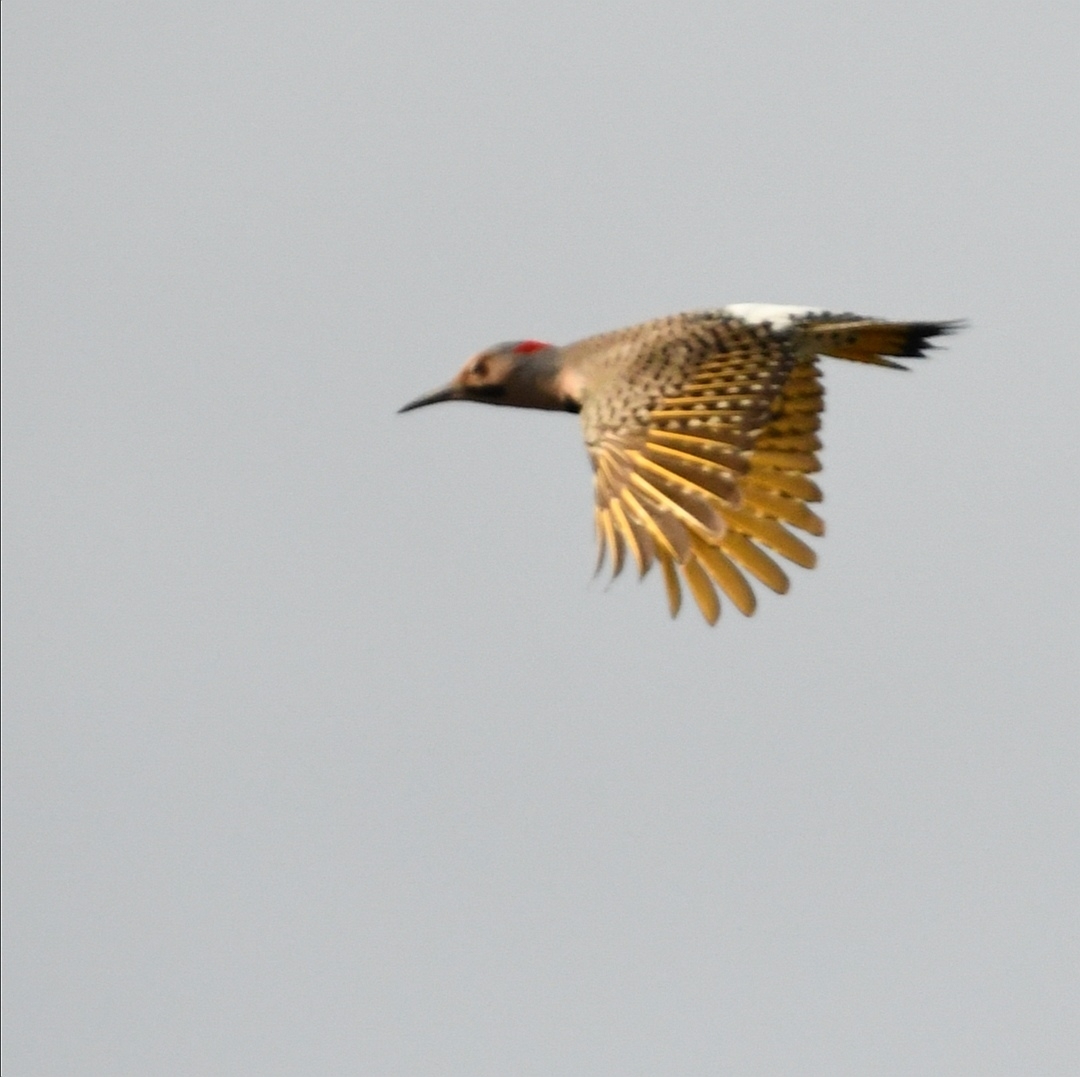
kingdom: Animalia
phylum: Chordata
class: Aves
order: Piciformes
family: Picidae
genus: Colaptes
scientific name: Colaptes auratus
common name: Northern flicker
